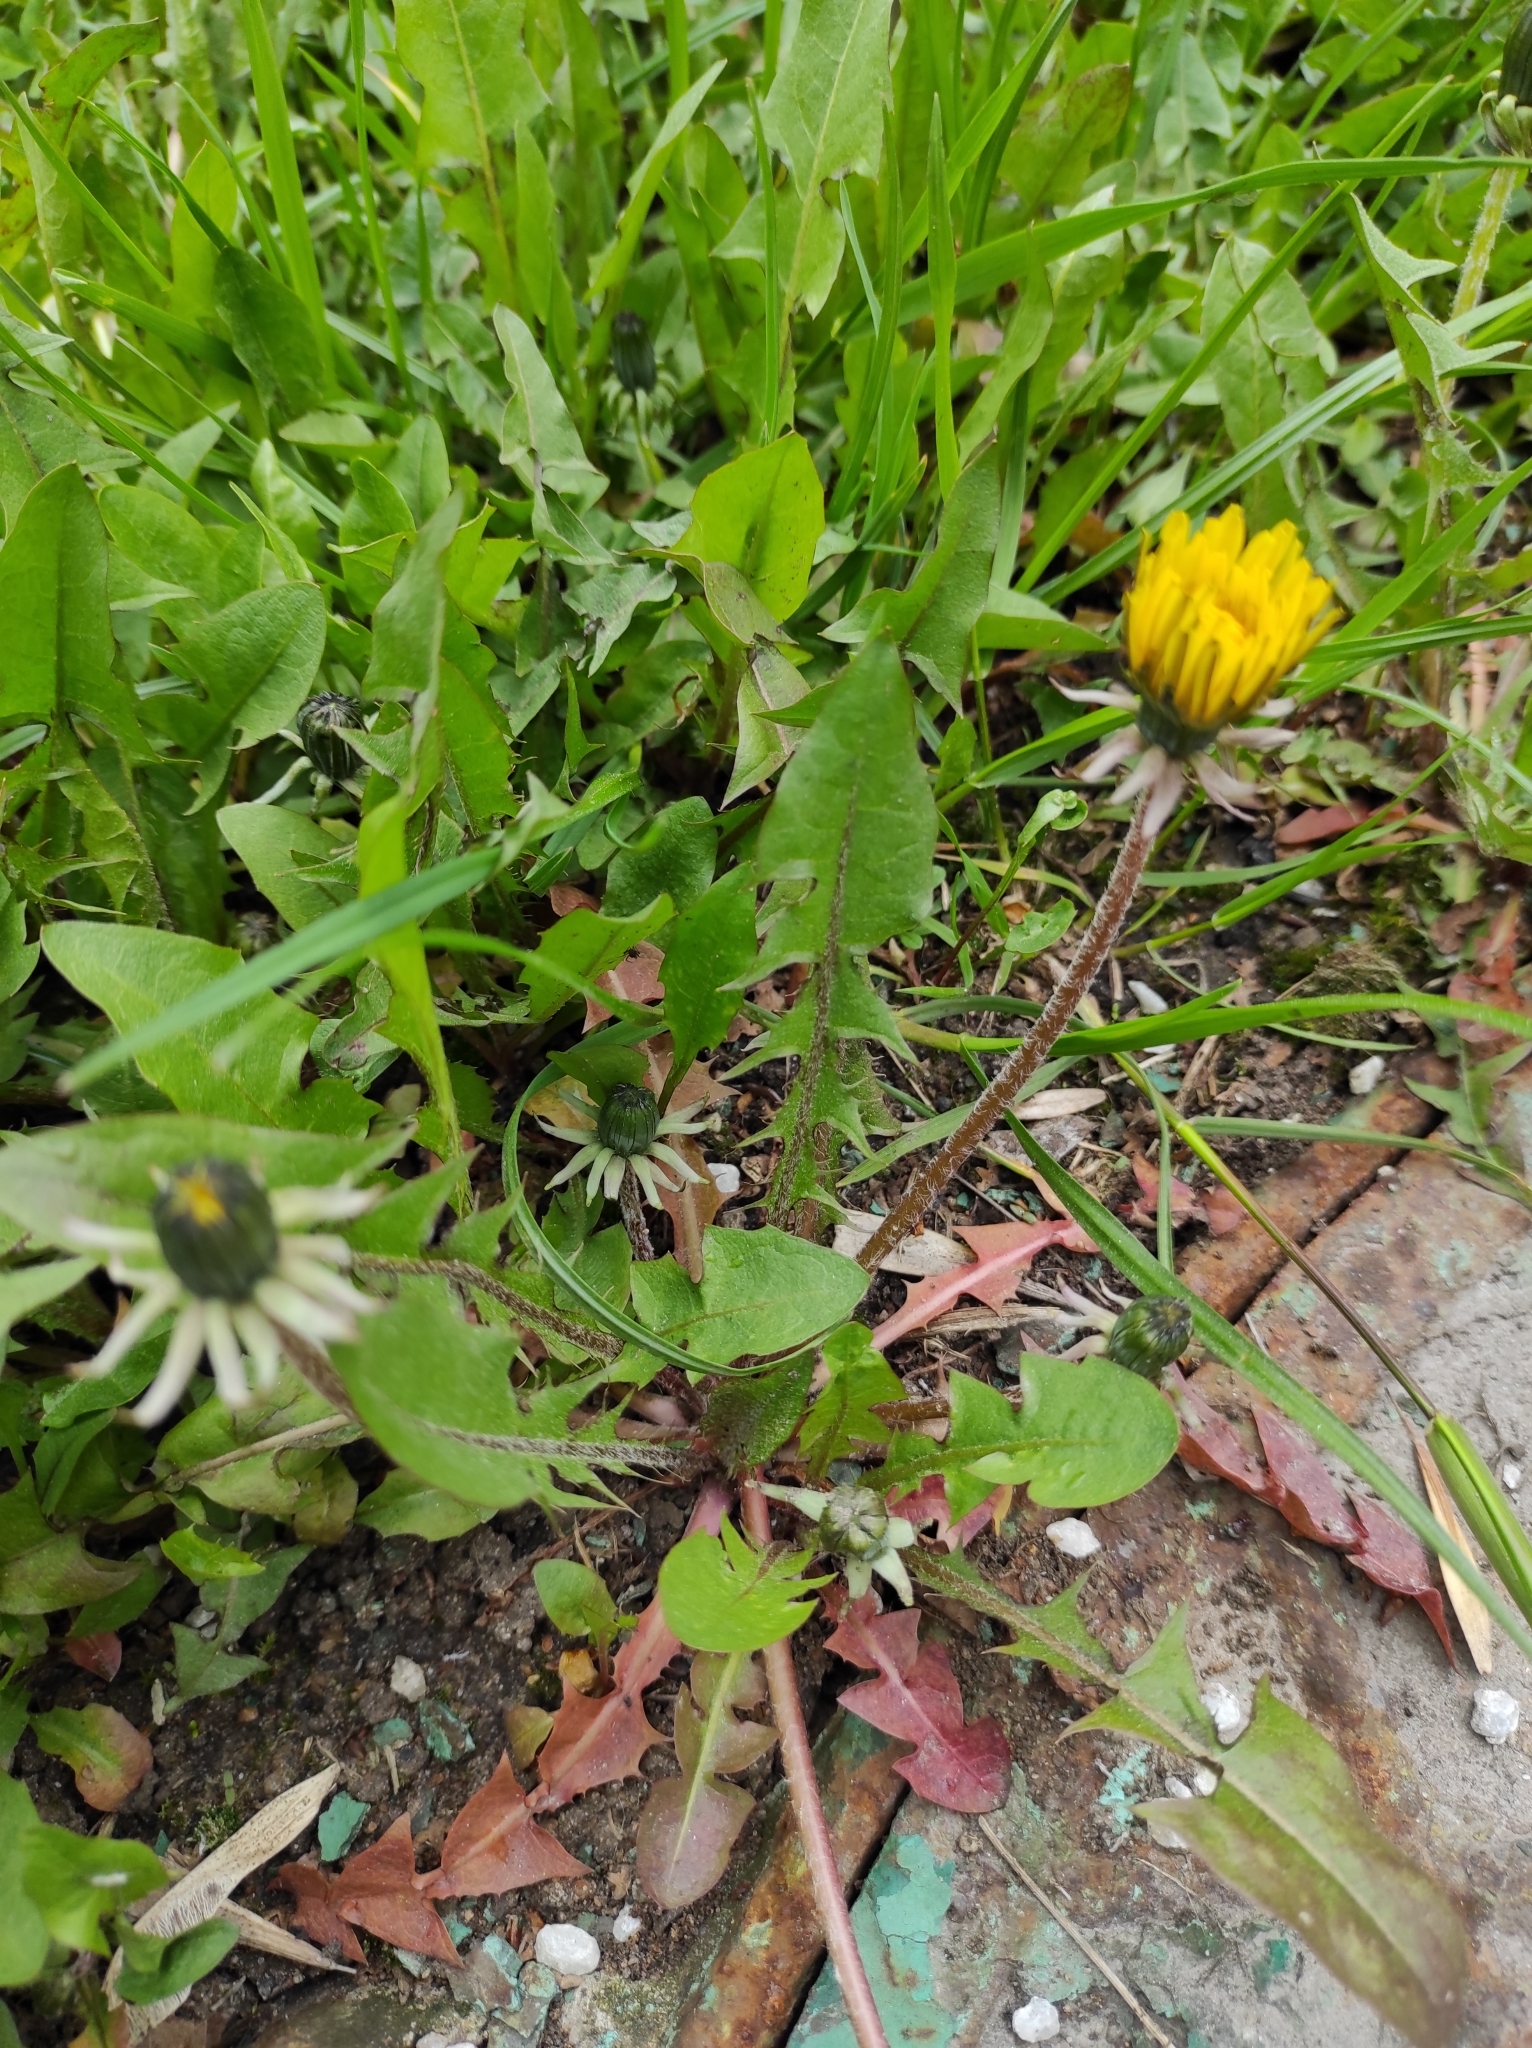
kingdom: Plantae
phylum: Tracheophyta
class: Magnoliopsida
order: Asterales
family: Asteraceae
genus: Taraxacum
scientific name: Taraxacum officinale
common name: Common dandelion
